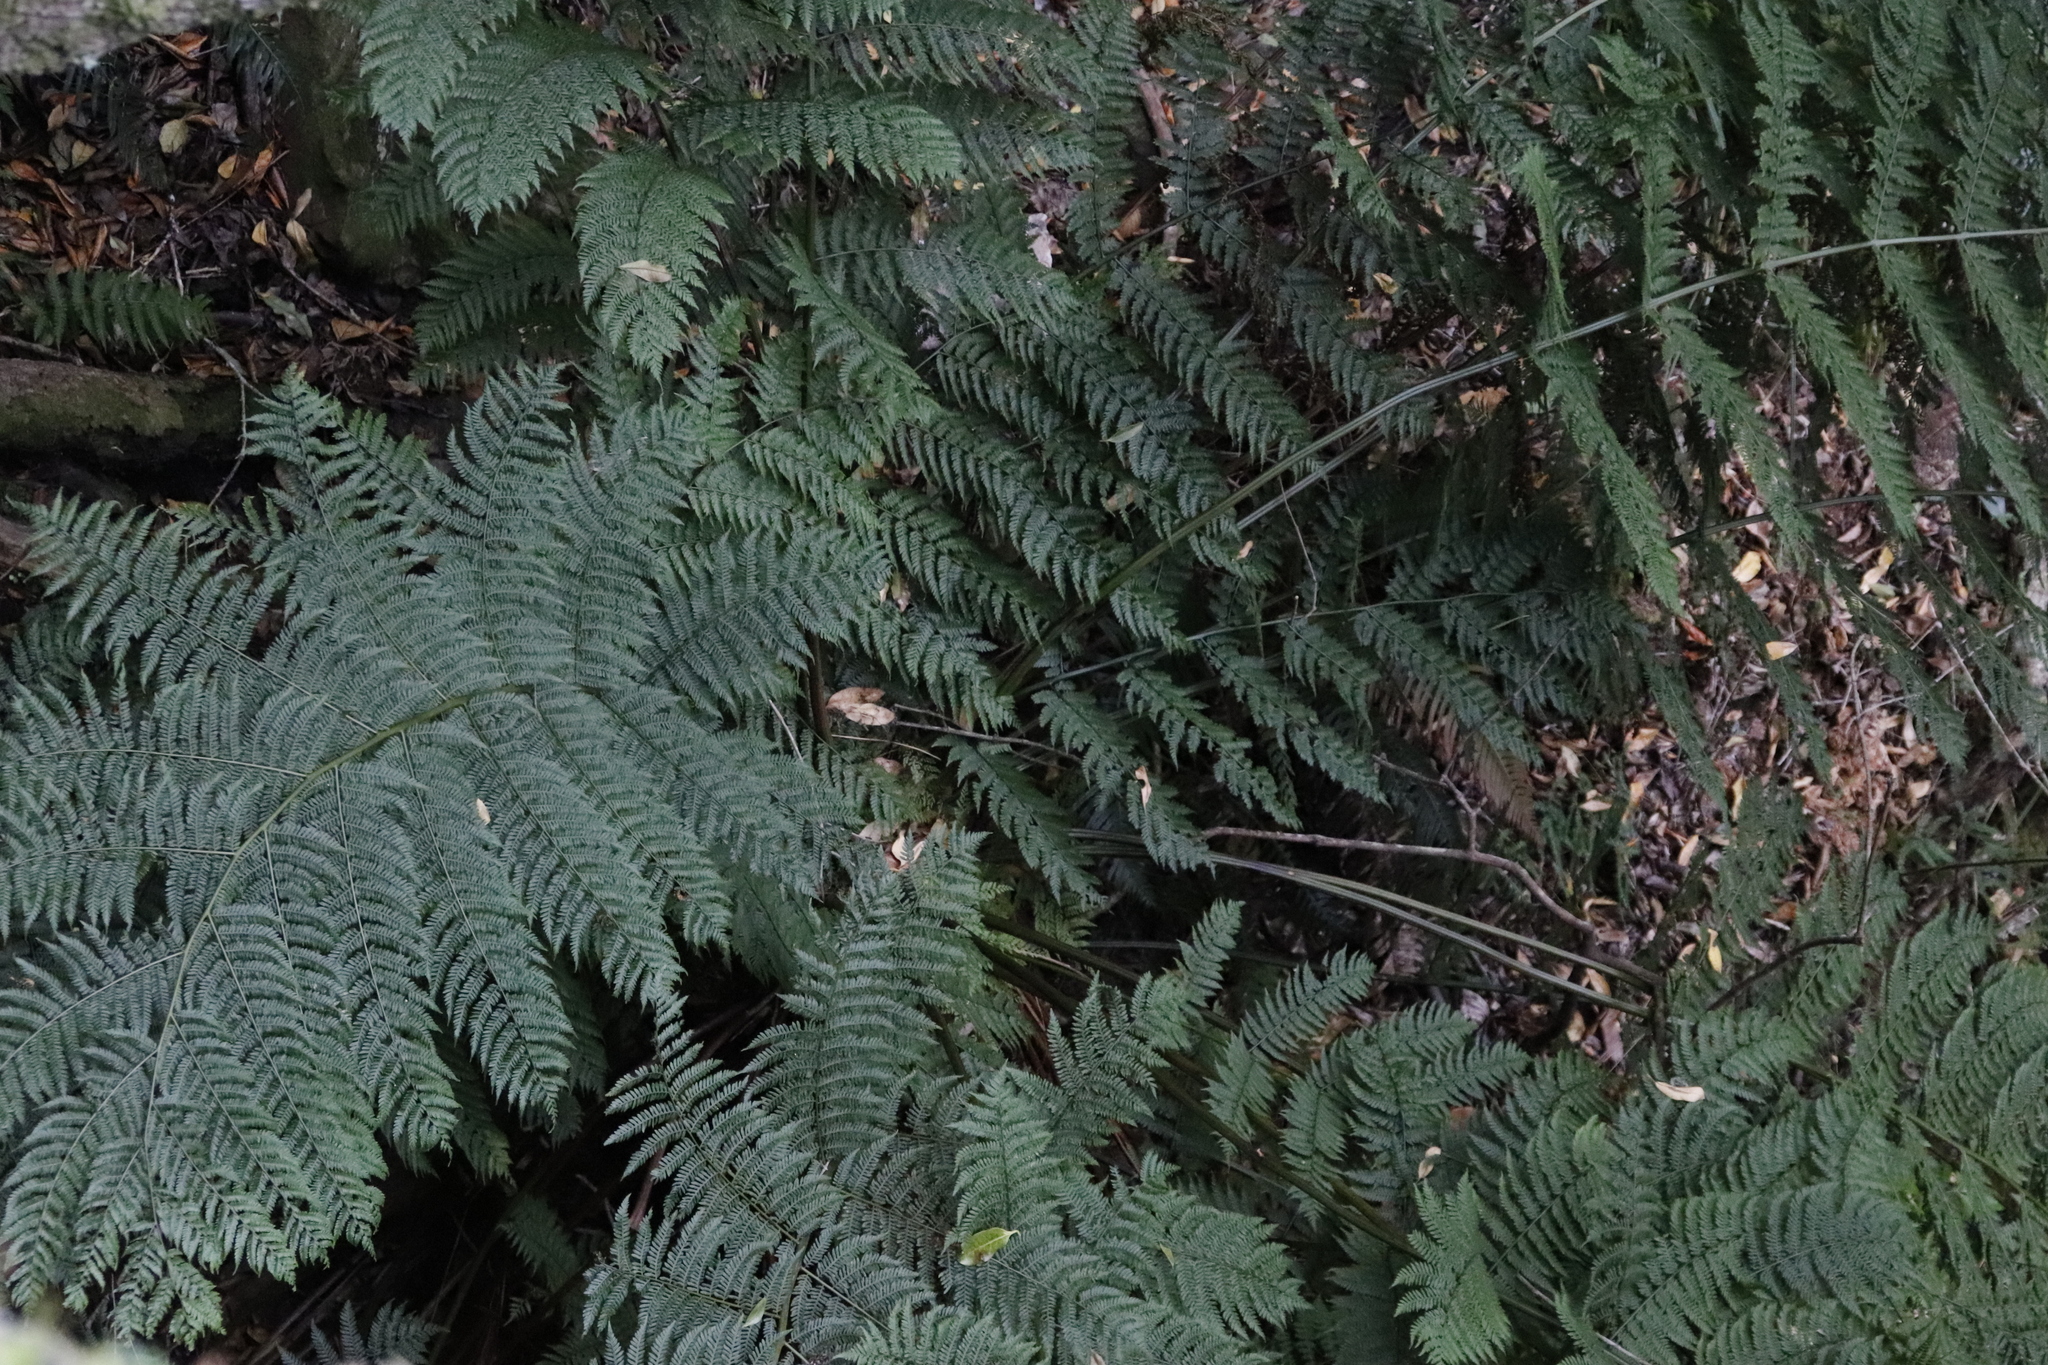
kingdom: Plantae
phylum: Tracheophyta
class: Polypodiopsida
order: Cyatheales
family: Cyatheaceae
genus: Gymnosphaera
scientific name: Gymnosphaera capensis
